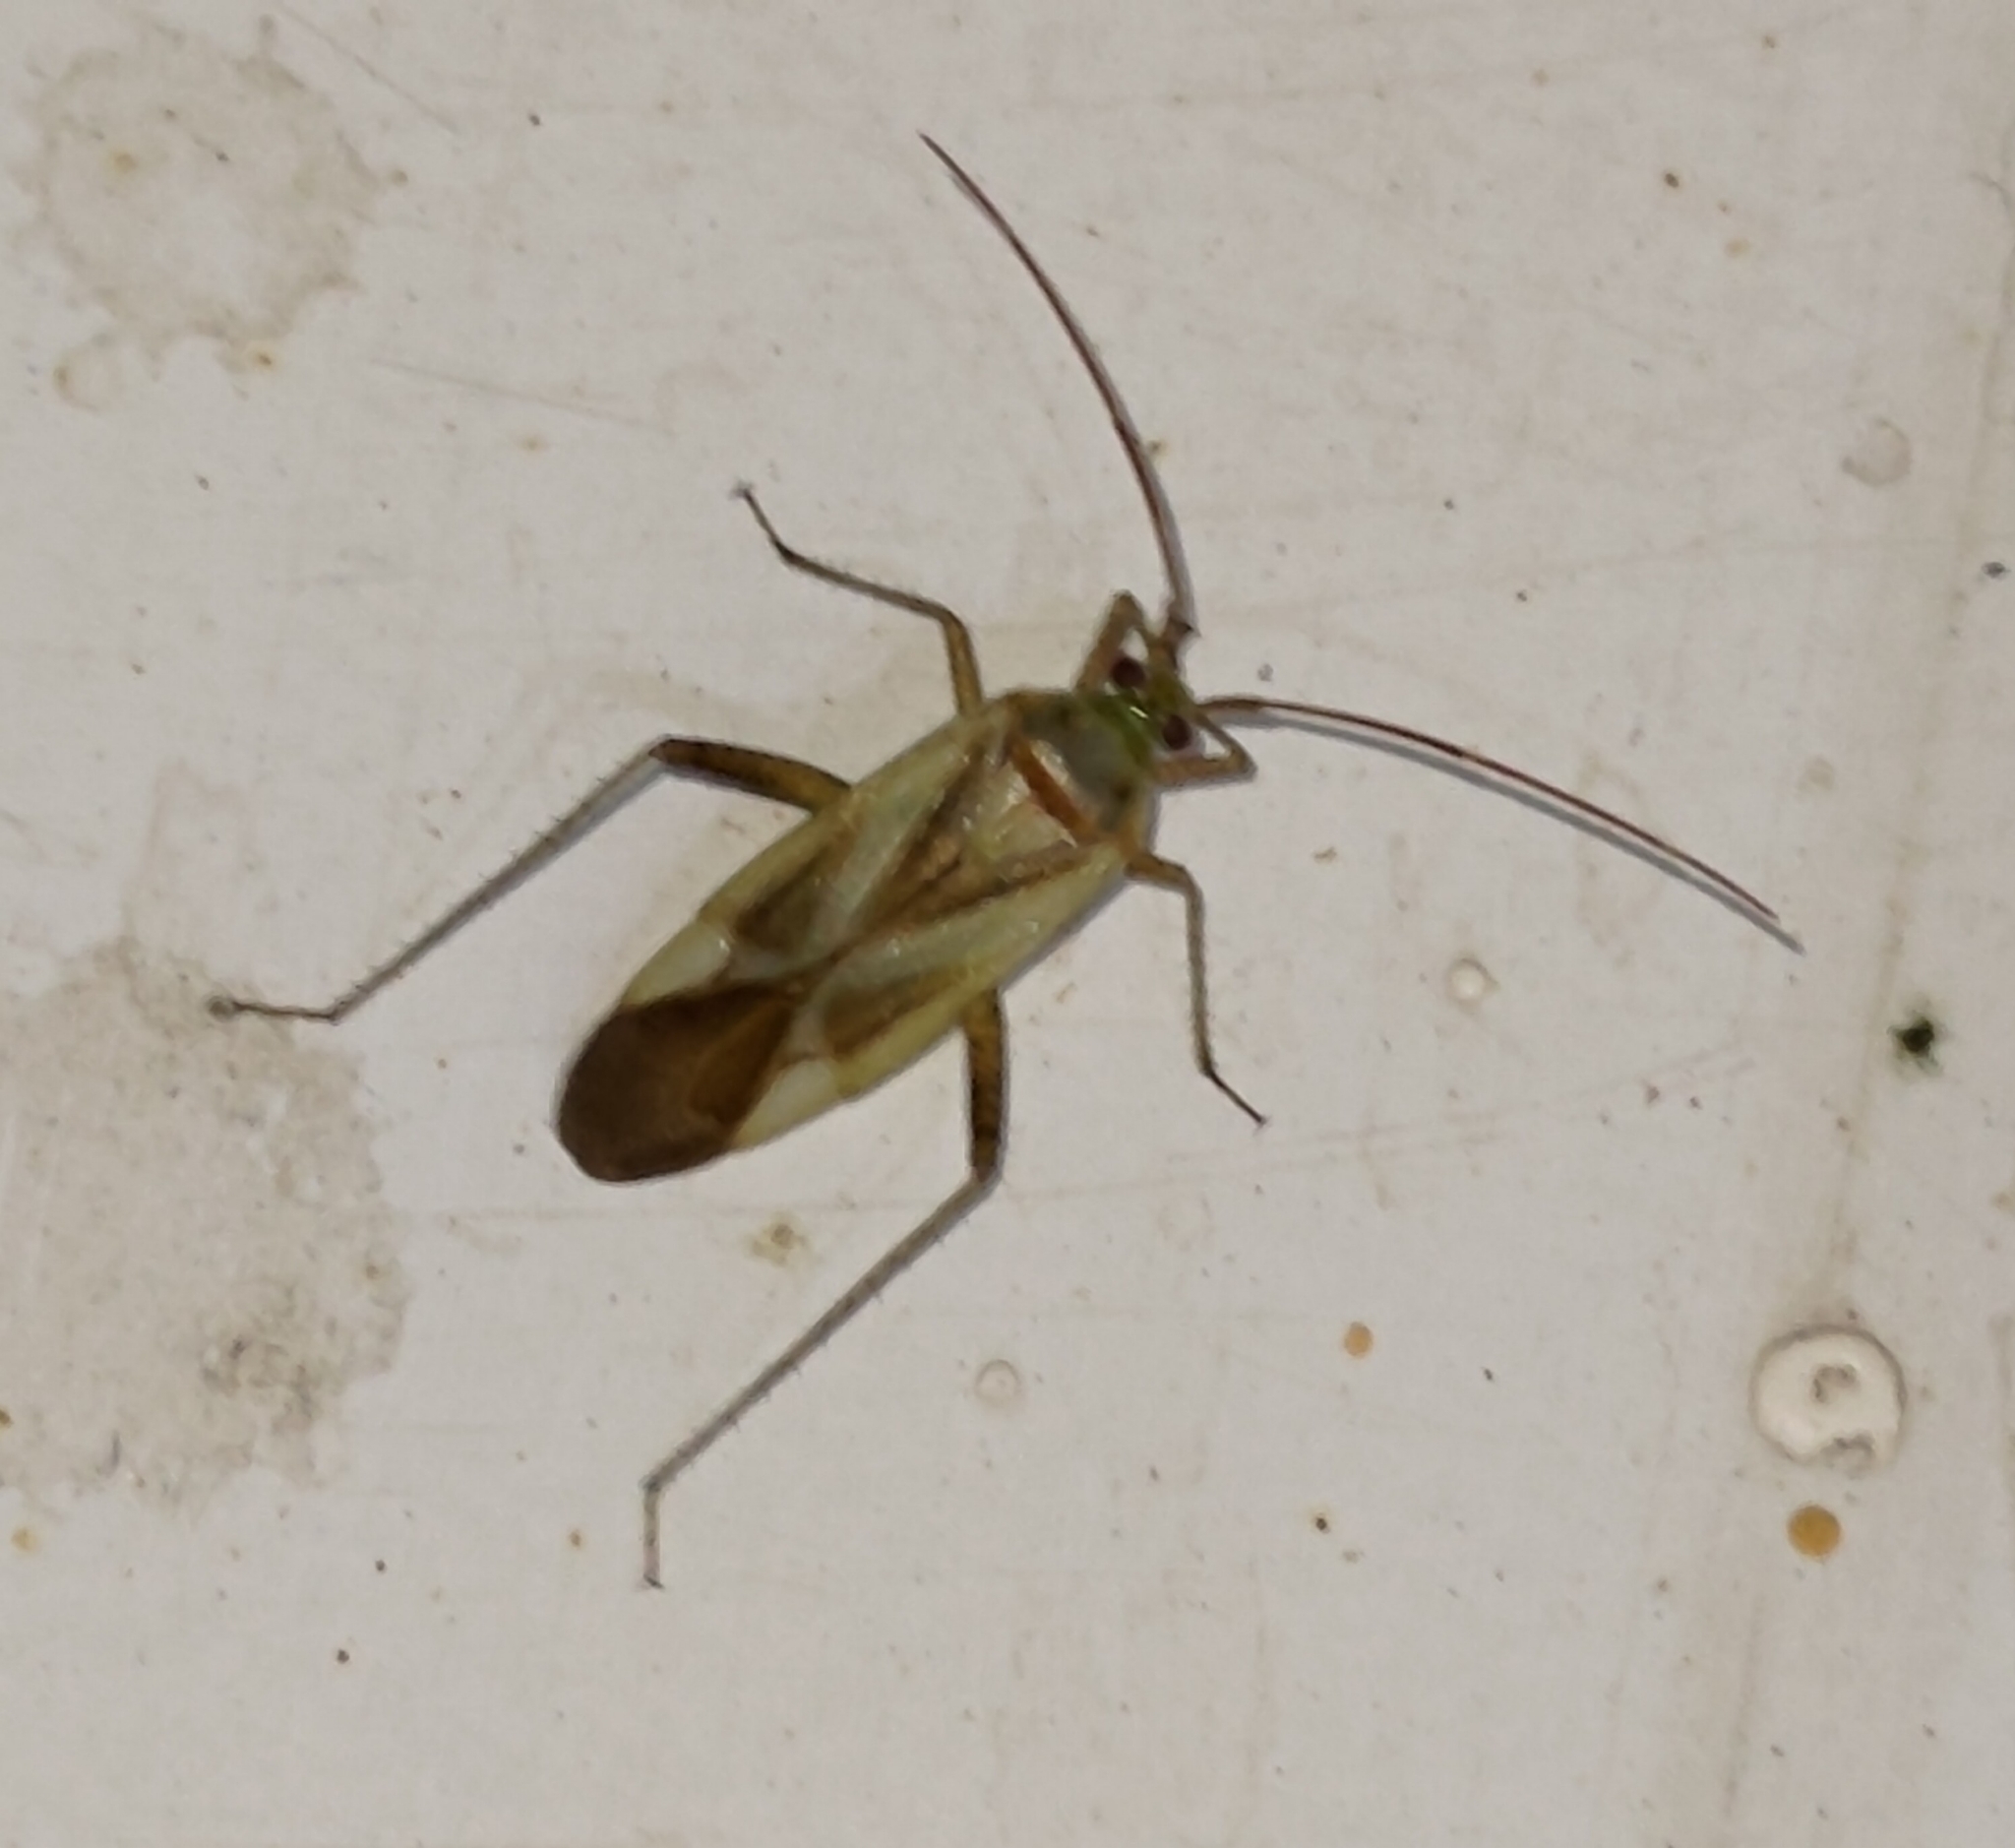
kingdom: Animalia
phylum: Arthropoda
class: Insecta
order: Hemiptera
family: Miridae
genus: Adelphocoris
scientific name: Adelphocoris lineolatus
